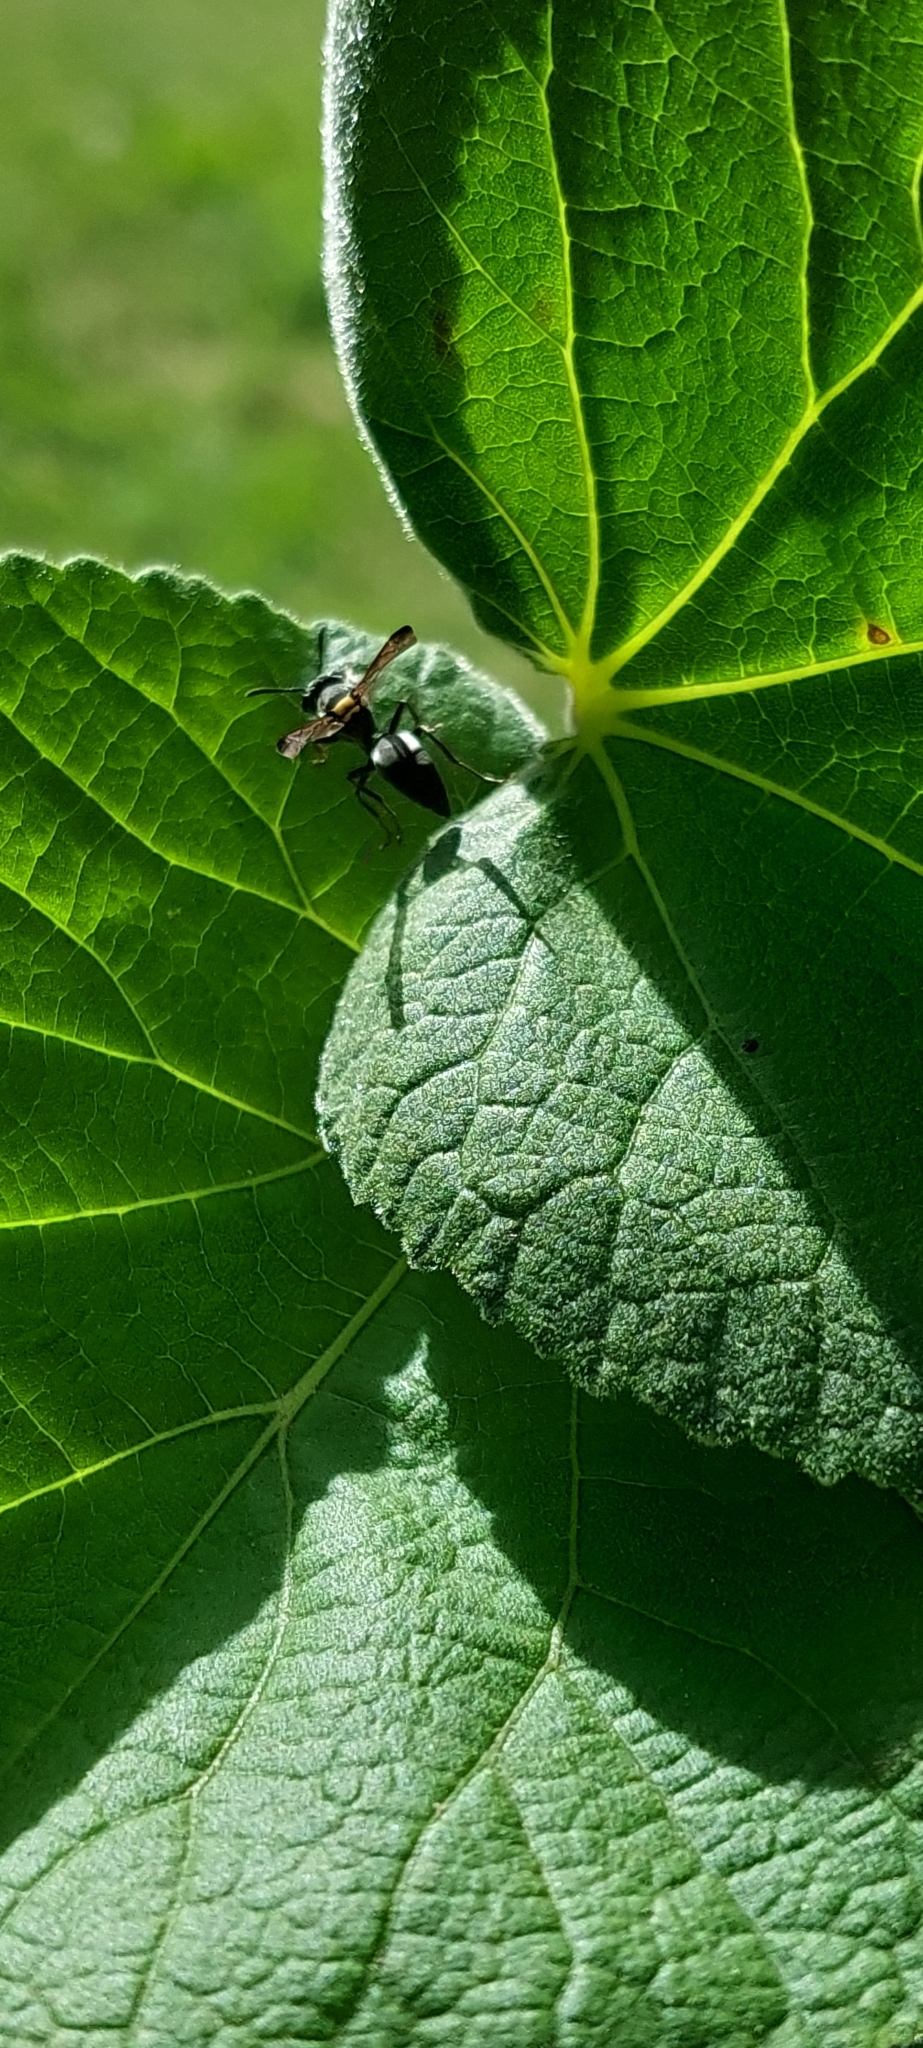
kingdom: Animalia
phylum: Arthropoda
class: Insecta
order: Hymenoptera
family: Eumenidae
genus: Polybia
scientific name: Polybia scutellaris
